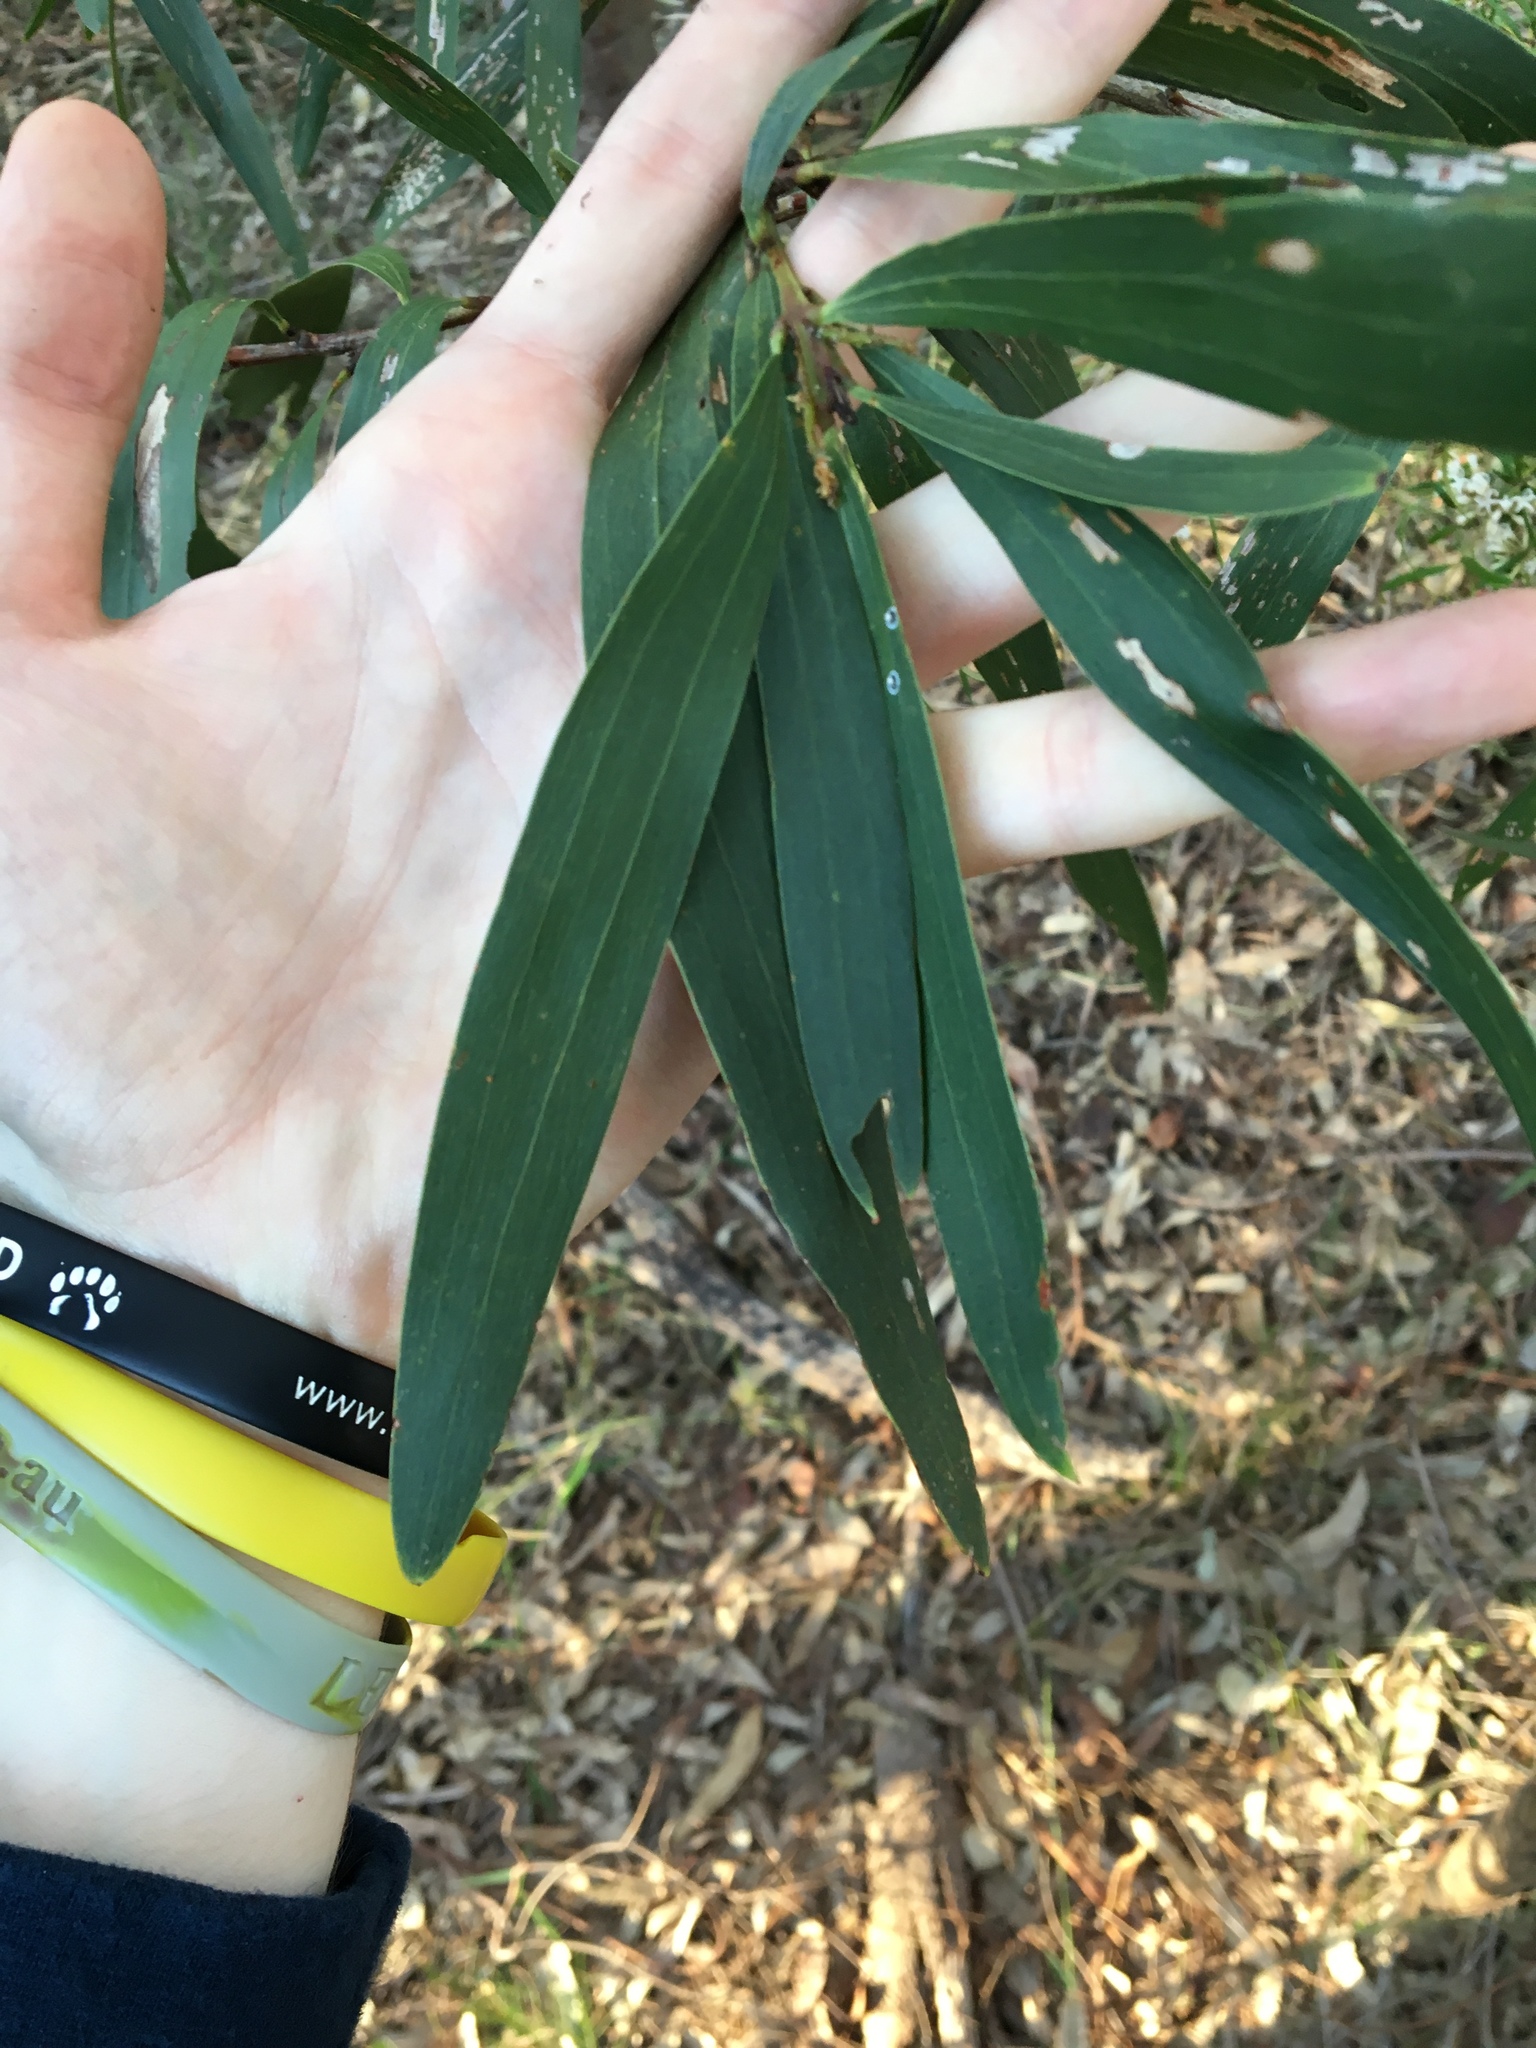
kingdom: Plantae
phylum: Tracheophyta
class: Magnoliopsida
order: Fabales
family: Fabaceae
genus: Acacia
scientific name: Acacia longifolia
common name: Sydney golden wattle
